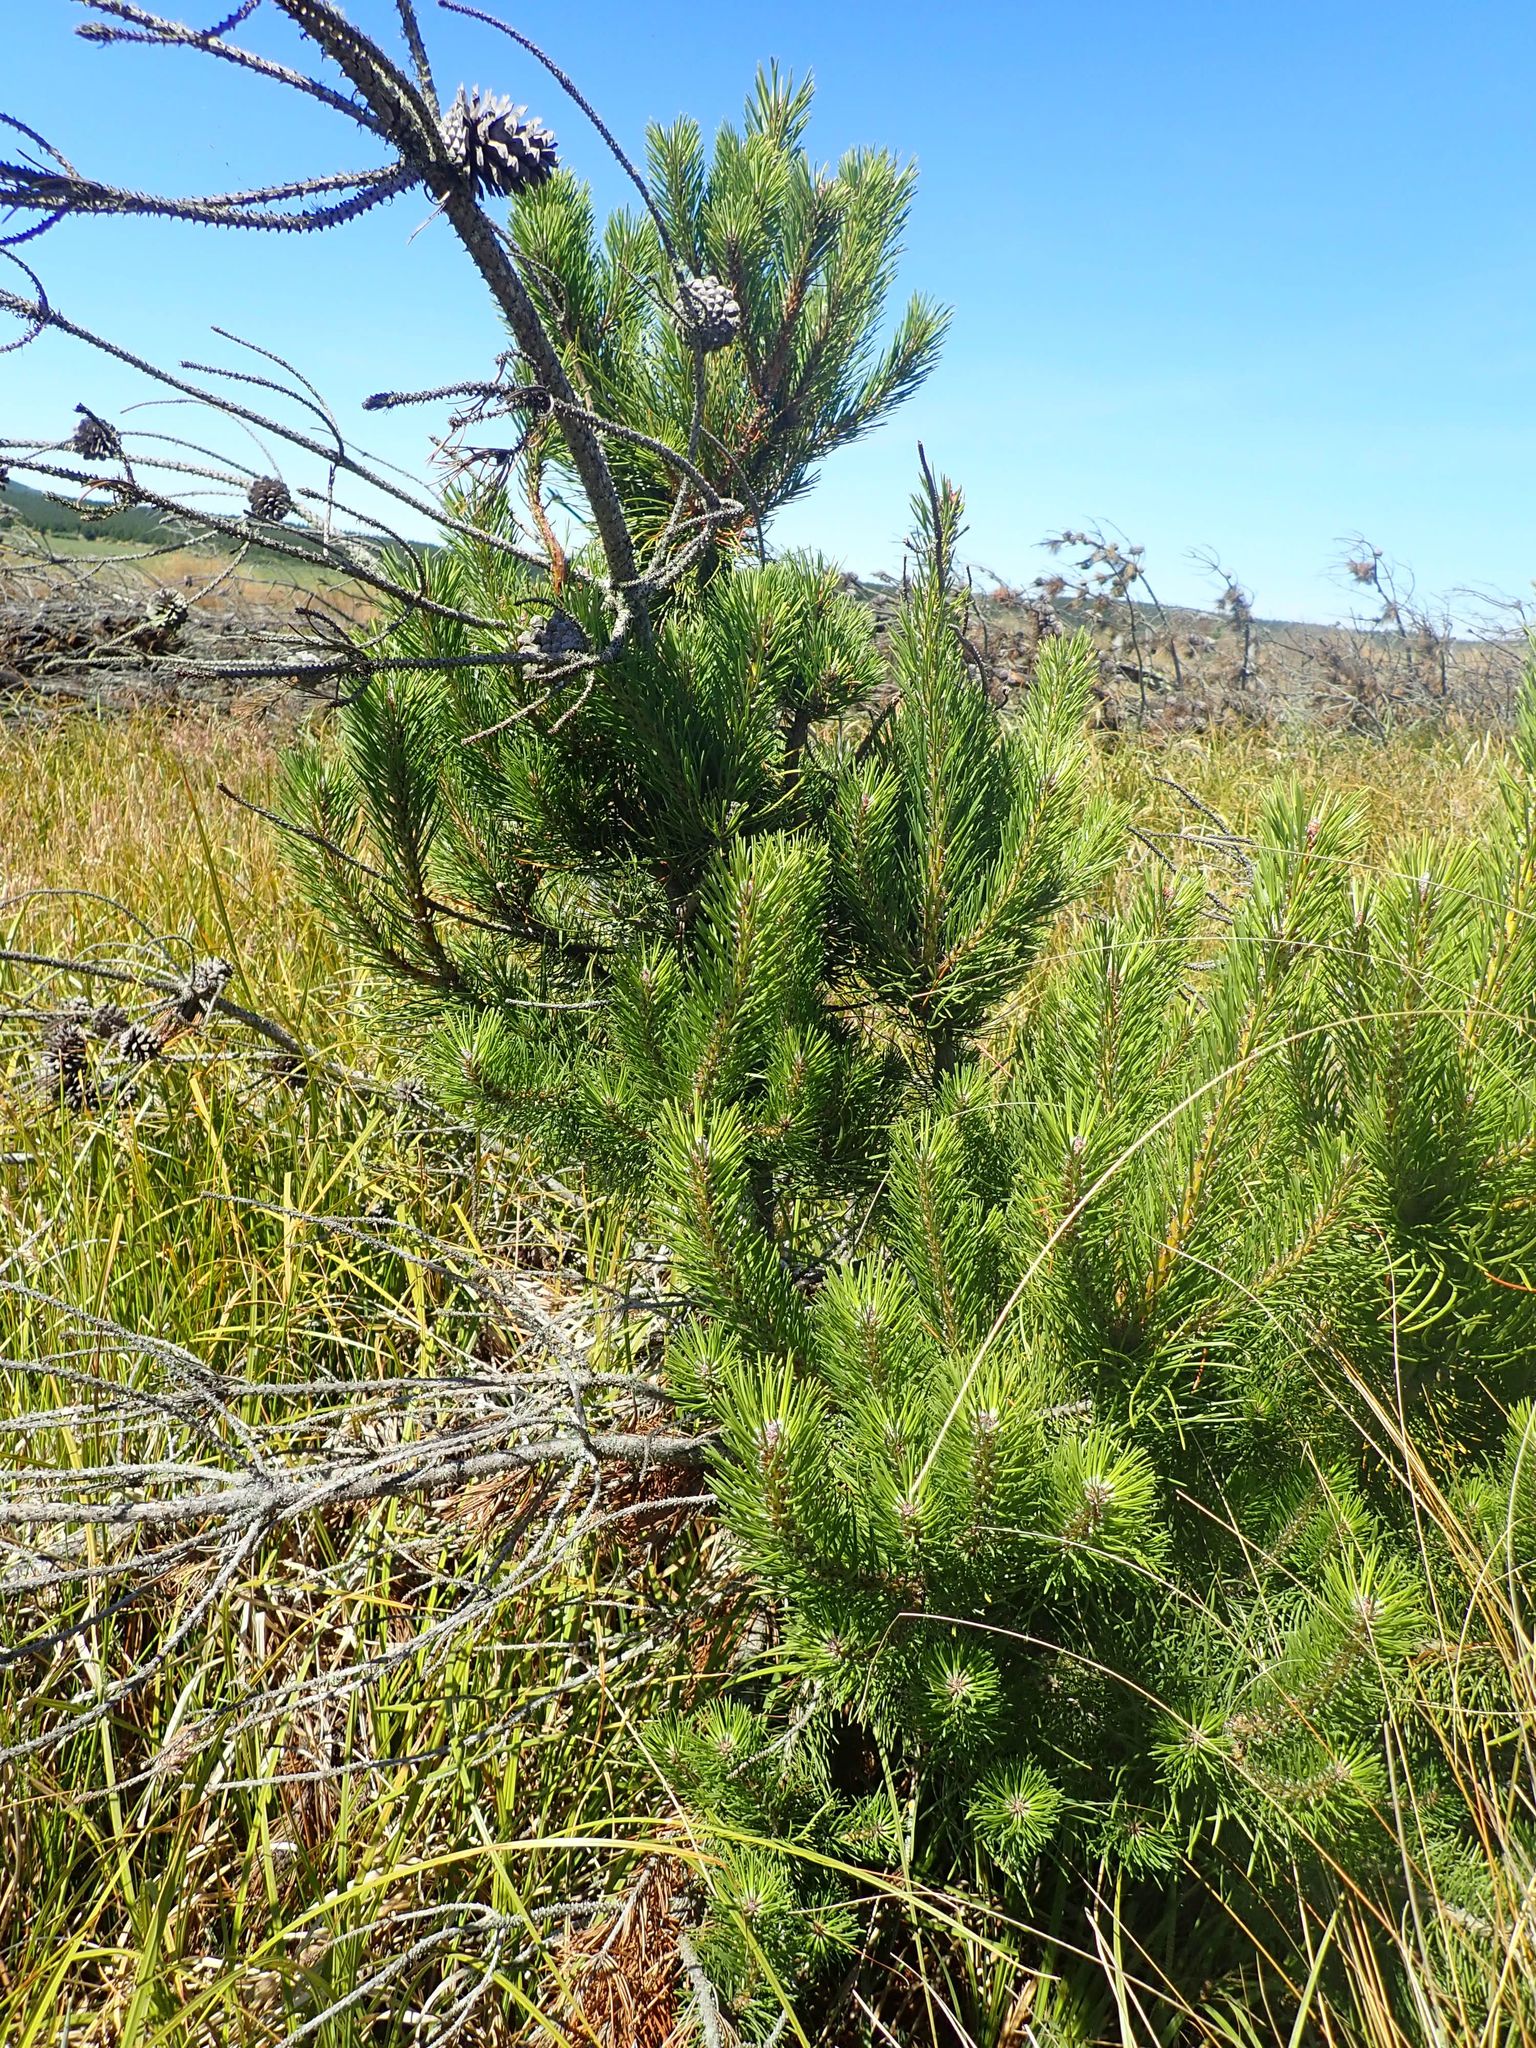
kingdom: Plantae
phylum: Tracheophyta
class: Pinopsida
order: Pinales
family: Pinaceae
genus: Pinus
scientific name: Pinus contorta
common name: Lodgepole pine
